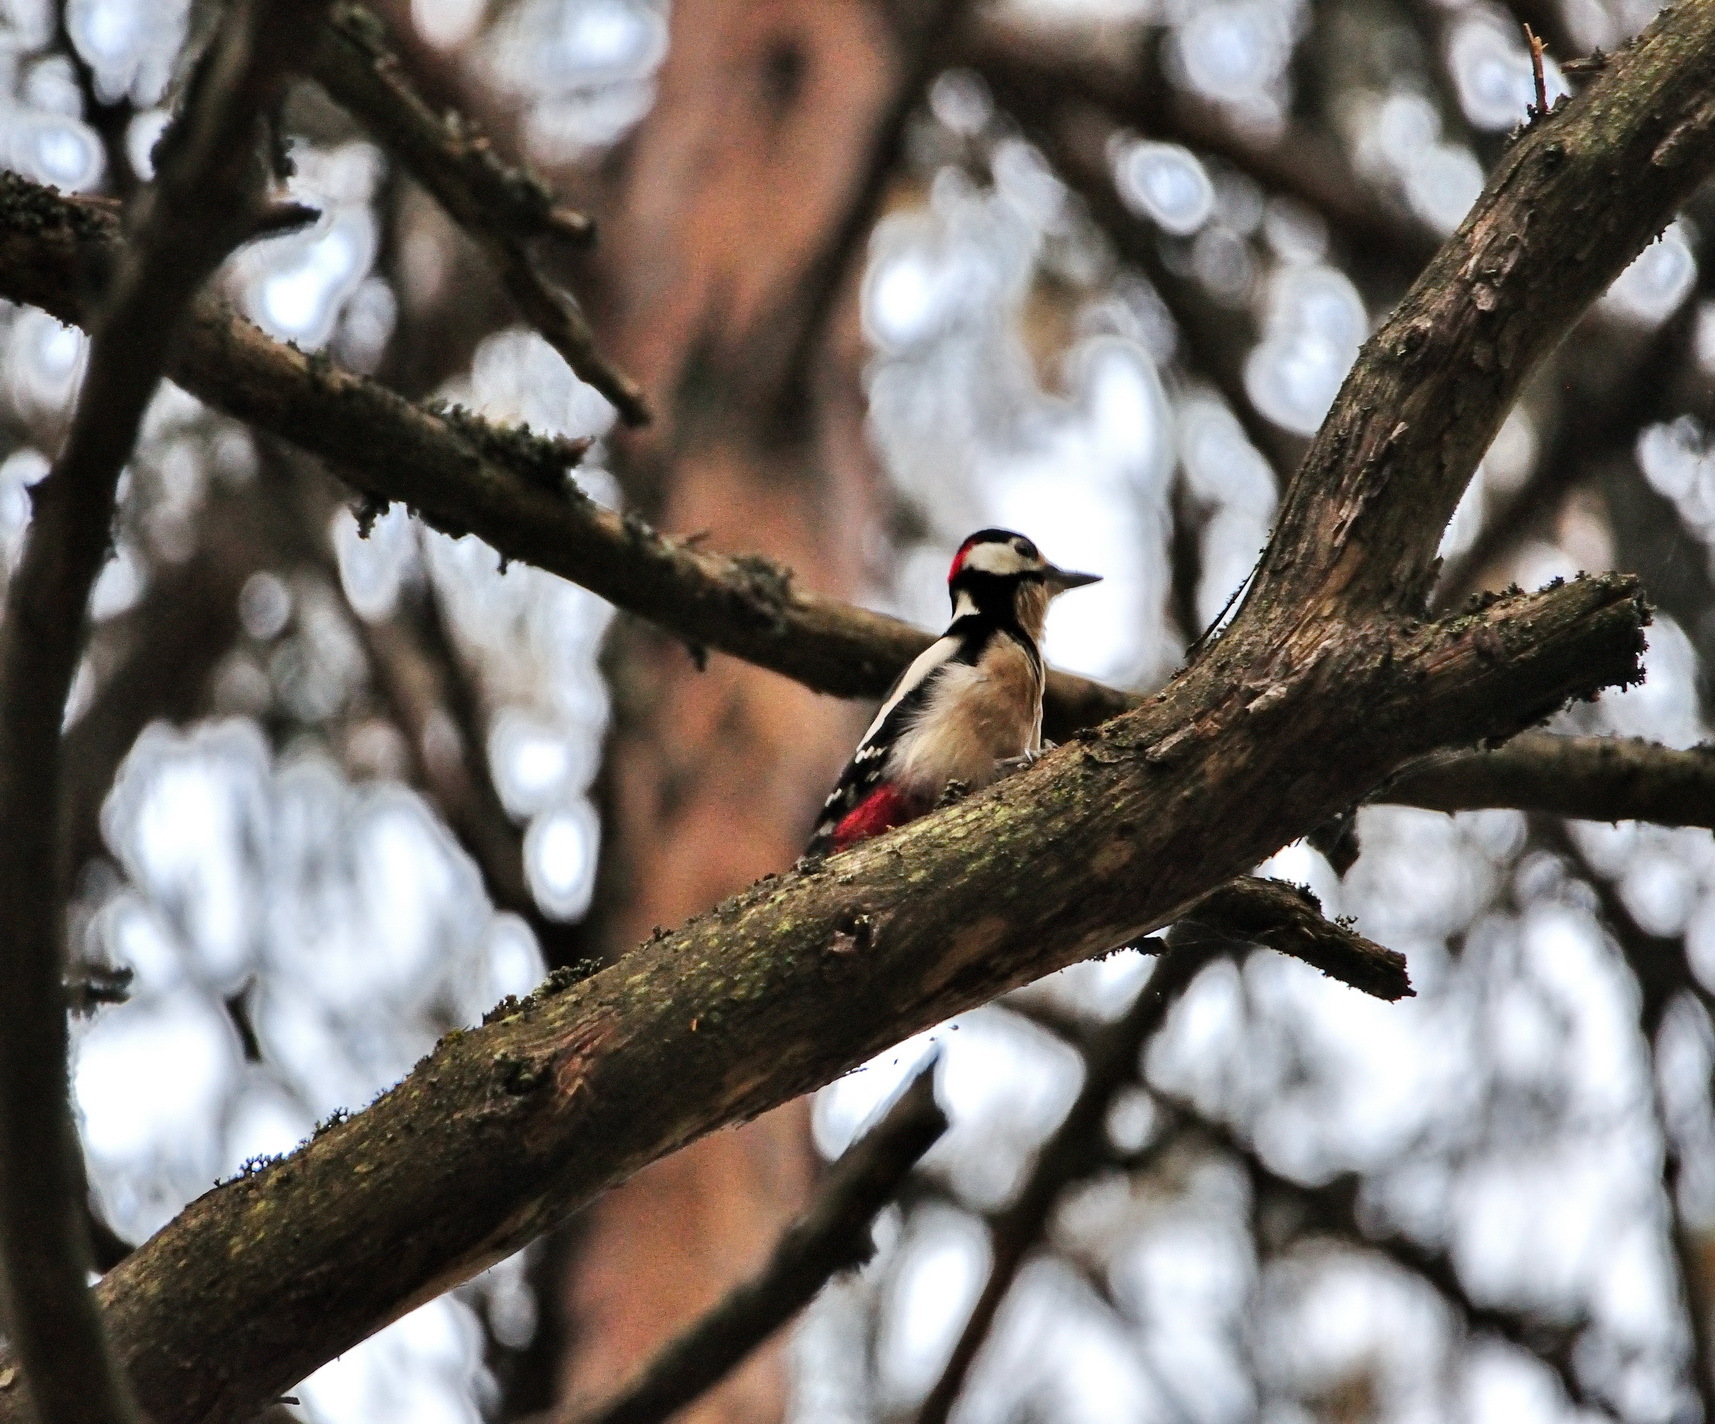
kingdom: Animalia
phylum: Chordata
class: Aves
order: Piciformes
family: Picidae
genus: Dendrocopos
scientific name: Dendrocopos major
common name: Great spotted woodpecker
